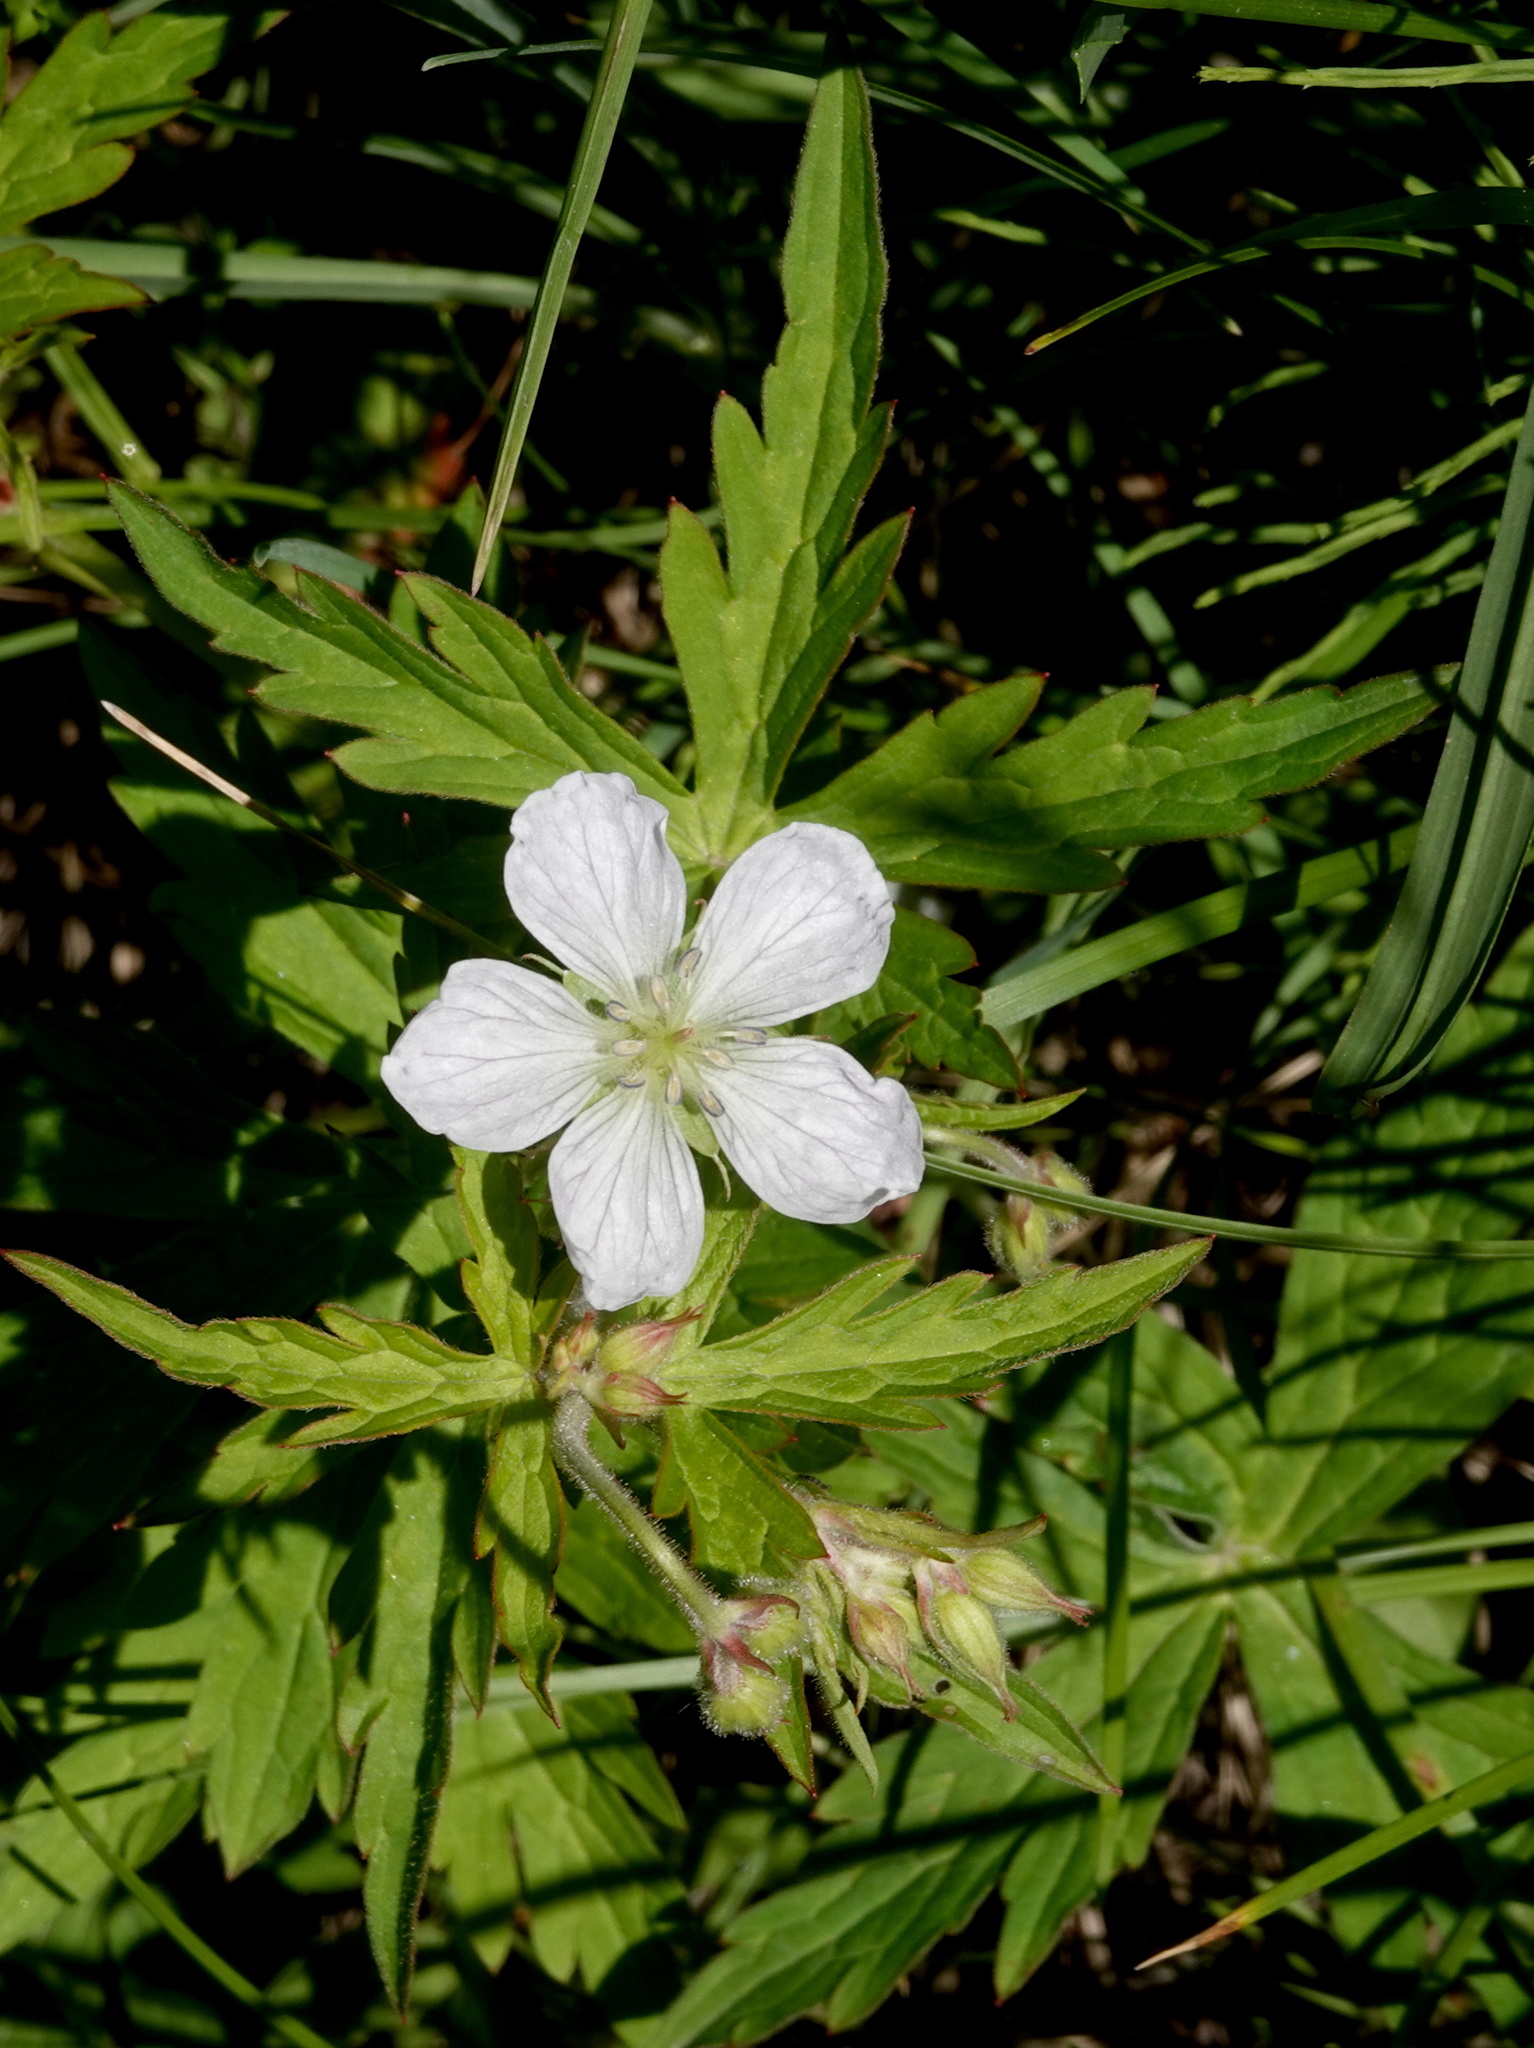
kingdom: Plantae
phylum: Tracheophyta
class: Magnoliopsida
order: Geraniales
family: Geraniaceae
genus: Geranium
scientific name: Geranium richardsonii
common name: Richardson's crane's-bill
